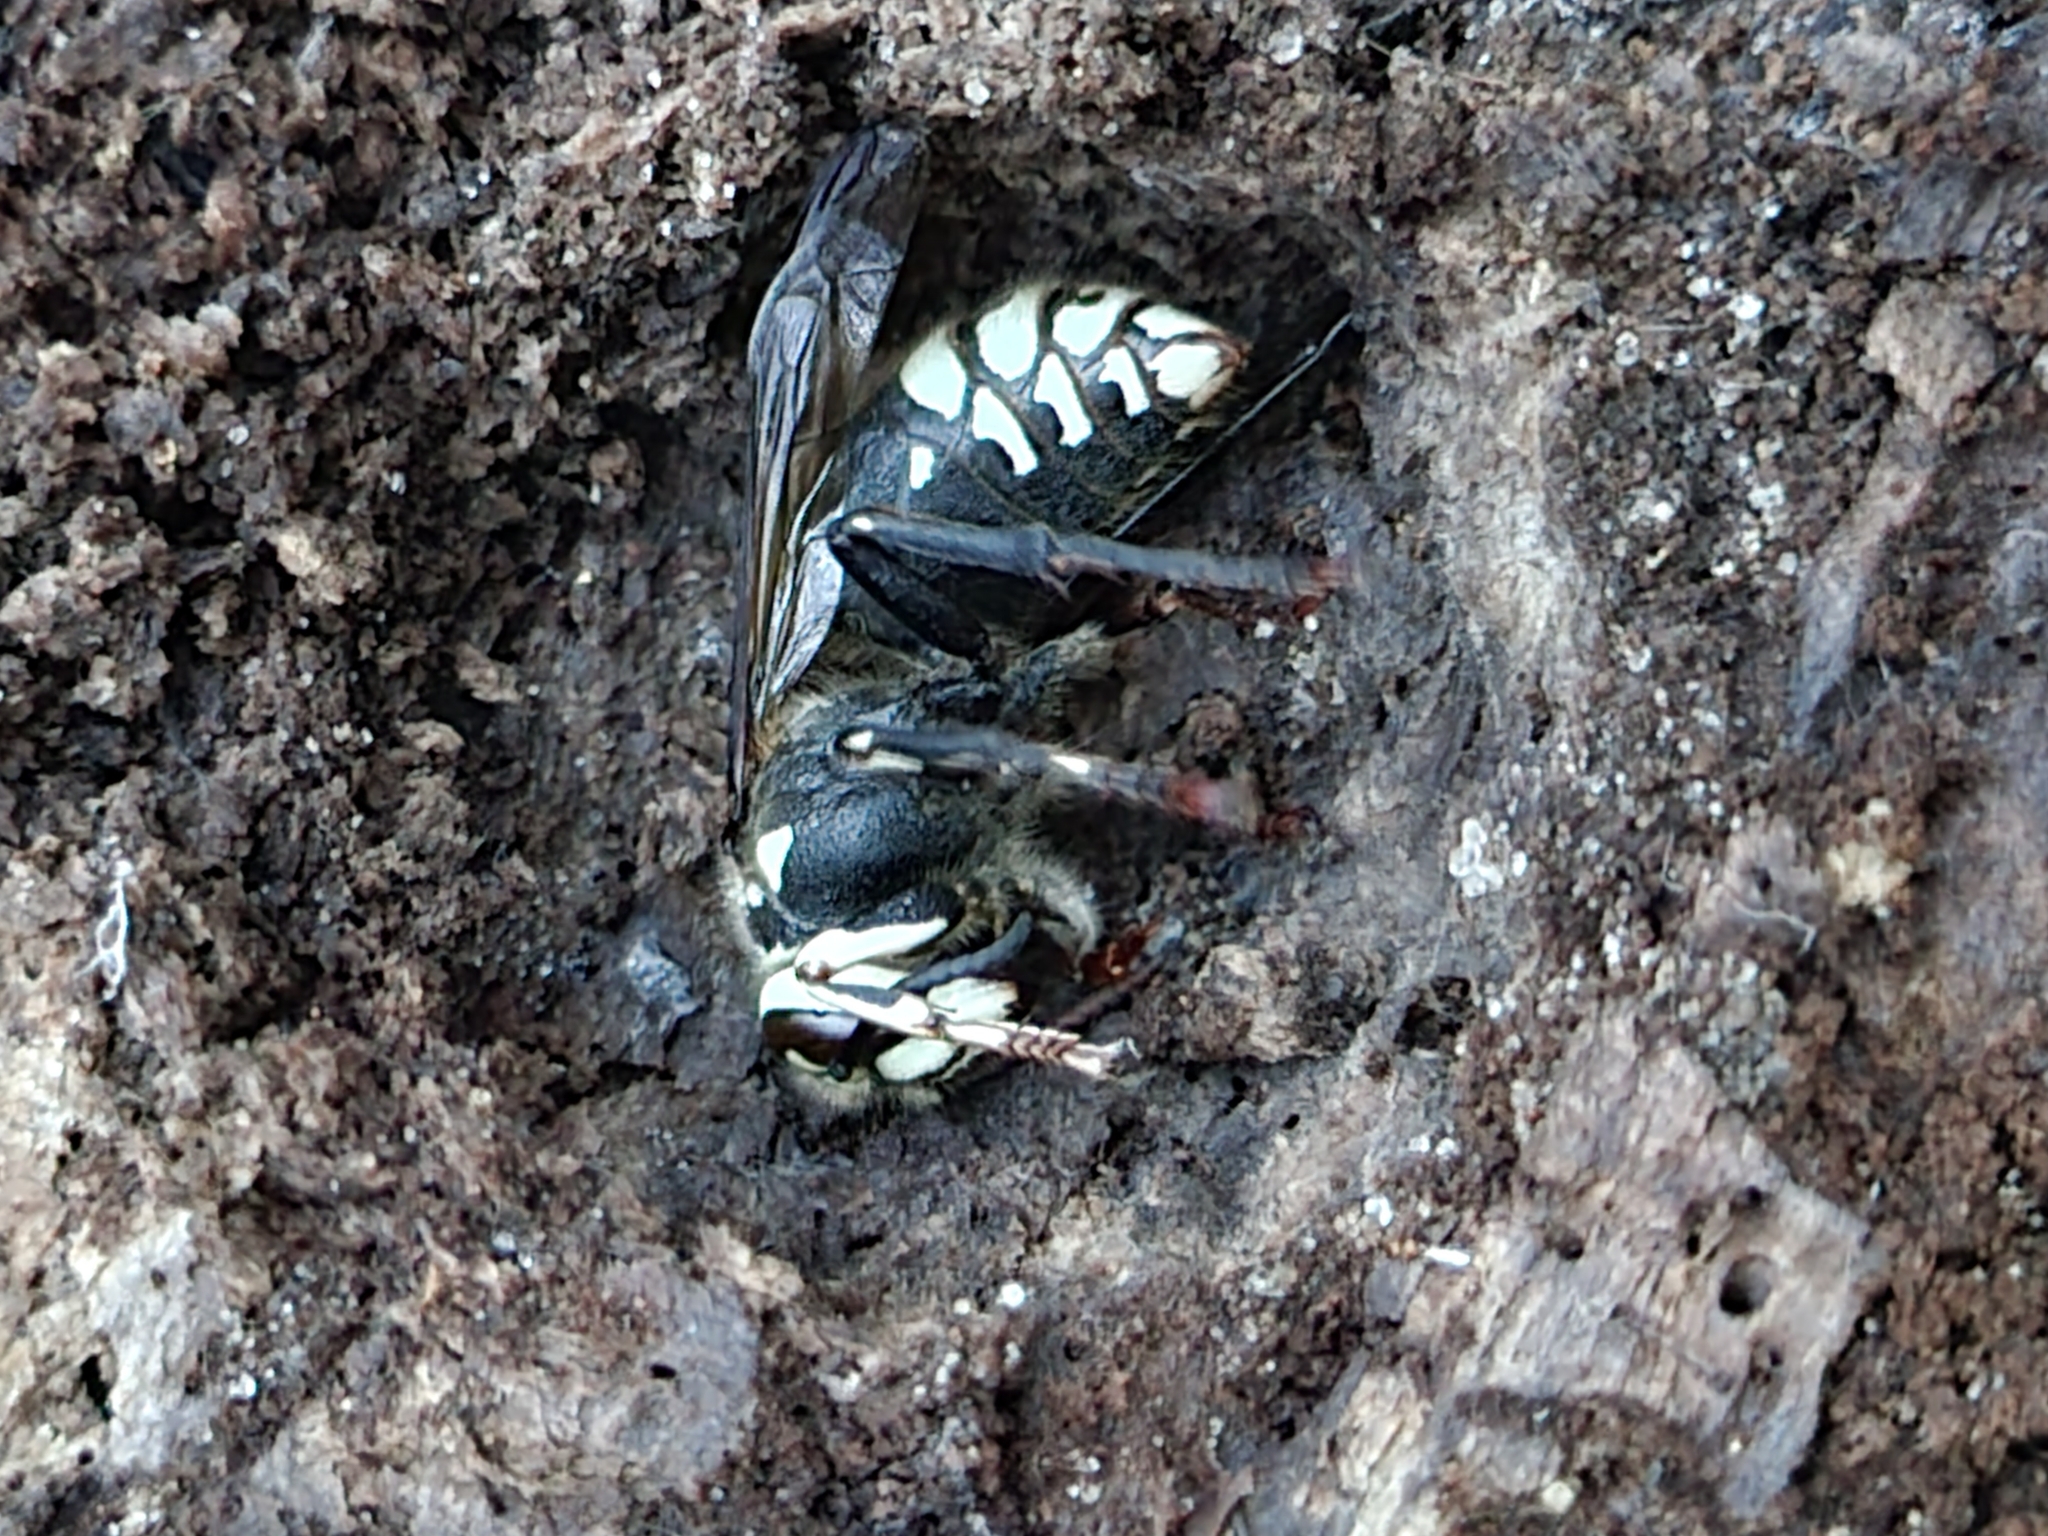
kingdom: Animalia
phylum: Arthropoda
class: Insecta
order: Hymenoptera
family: Vespidae
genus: Dolichovespula
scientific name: Dolichovespula maculata
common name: Bald-faced hornet
